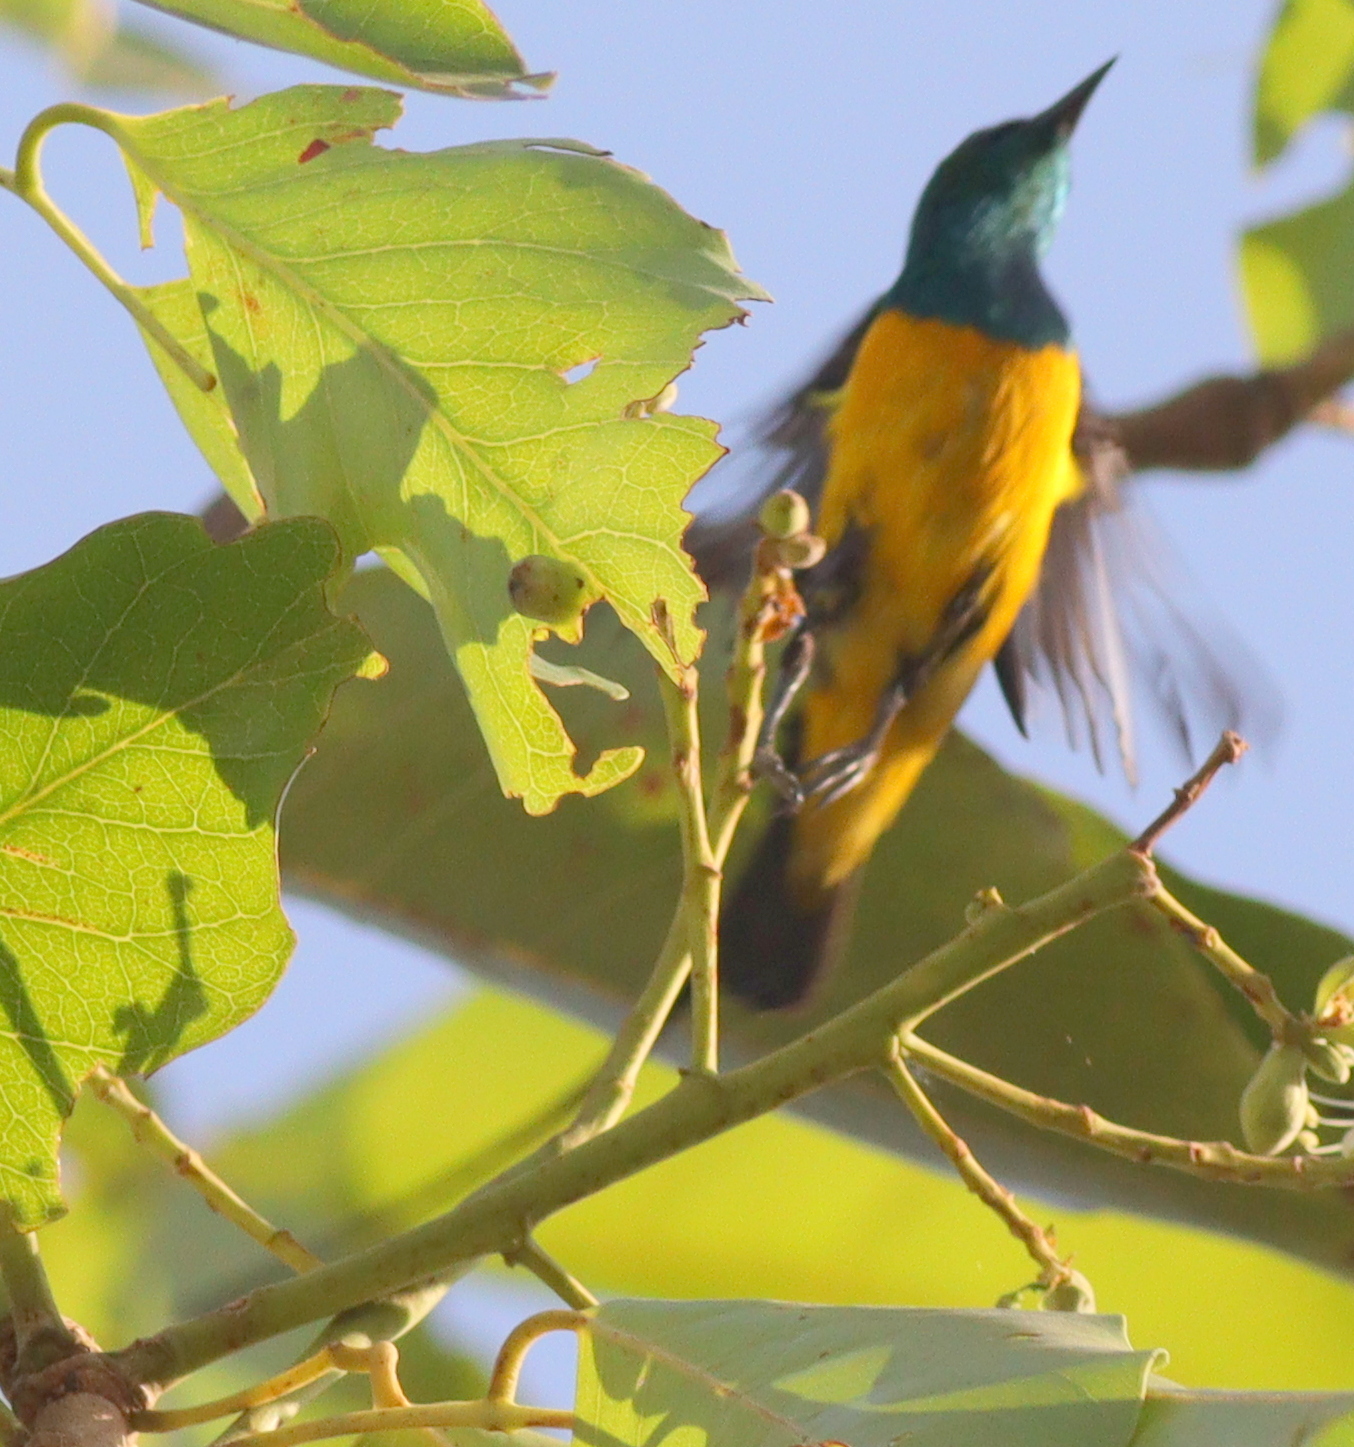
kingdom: Animalia
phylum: Chordata
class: Aves
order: Passeriformes
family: Nectariniidae
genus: Hedydipna
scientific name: Hedydipna platura
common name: Pygmy sunbird
